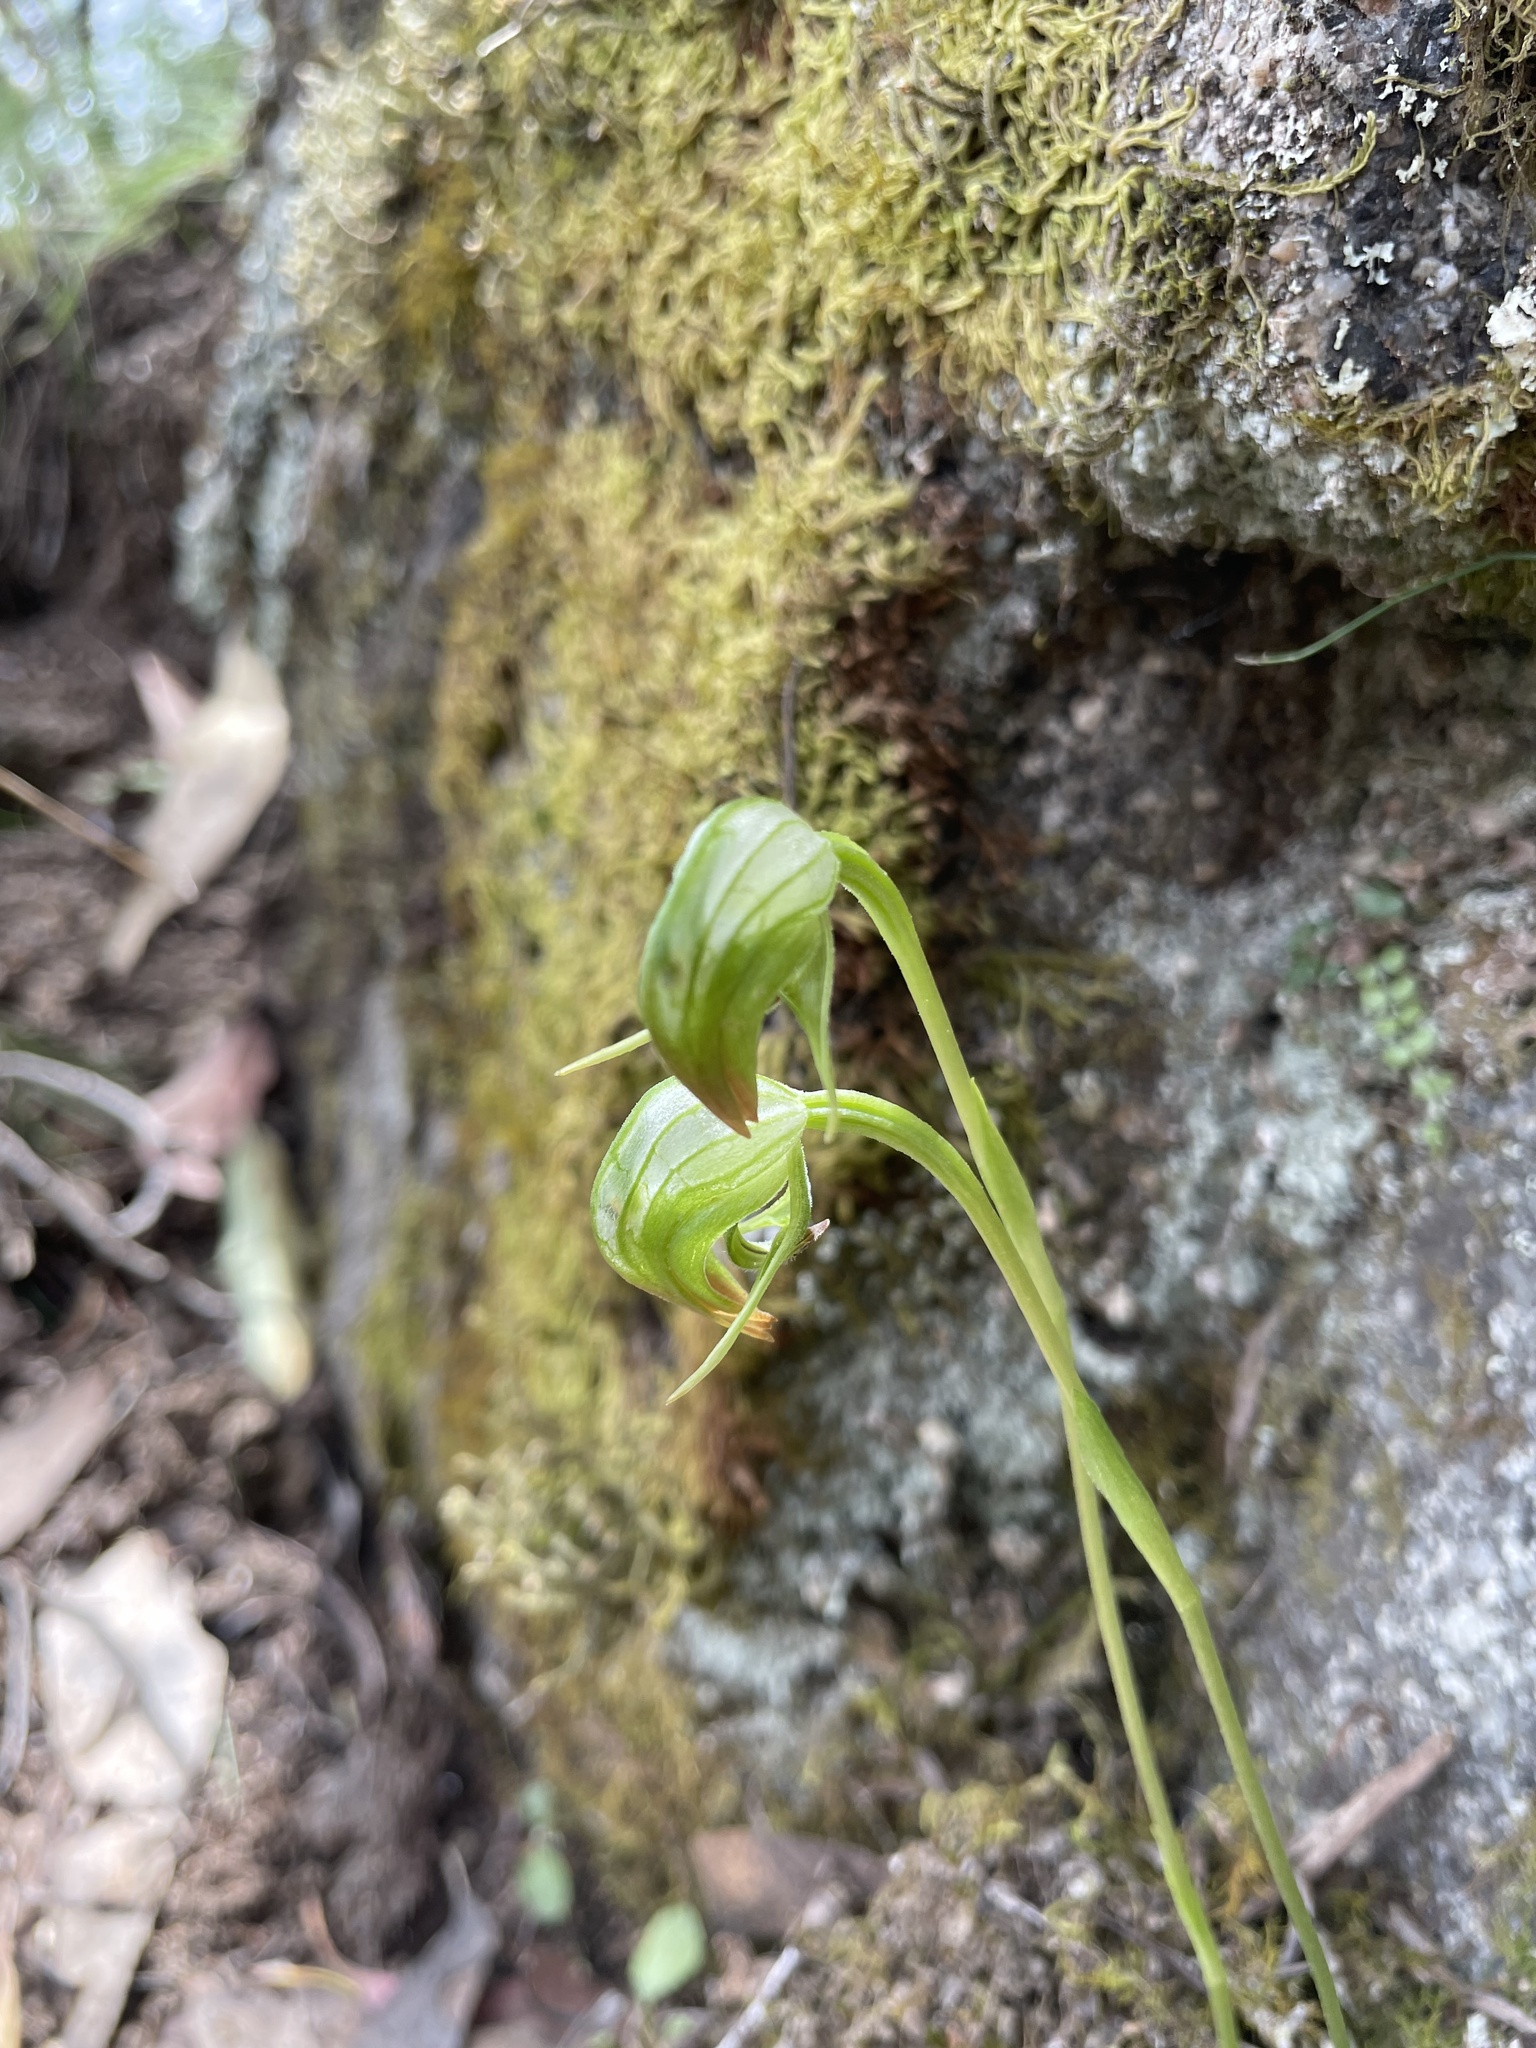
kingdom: Plantae
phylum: Tracheophyta
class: Liliopsida
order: Asparagales
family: Orchidaceae
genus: Pterostylis
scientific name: Pterostylis nutans
